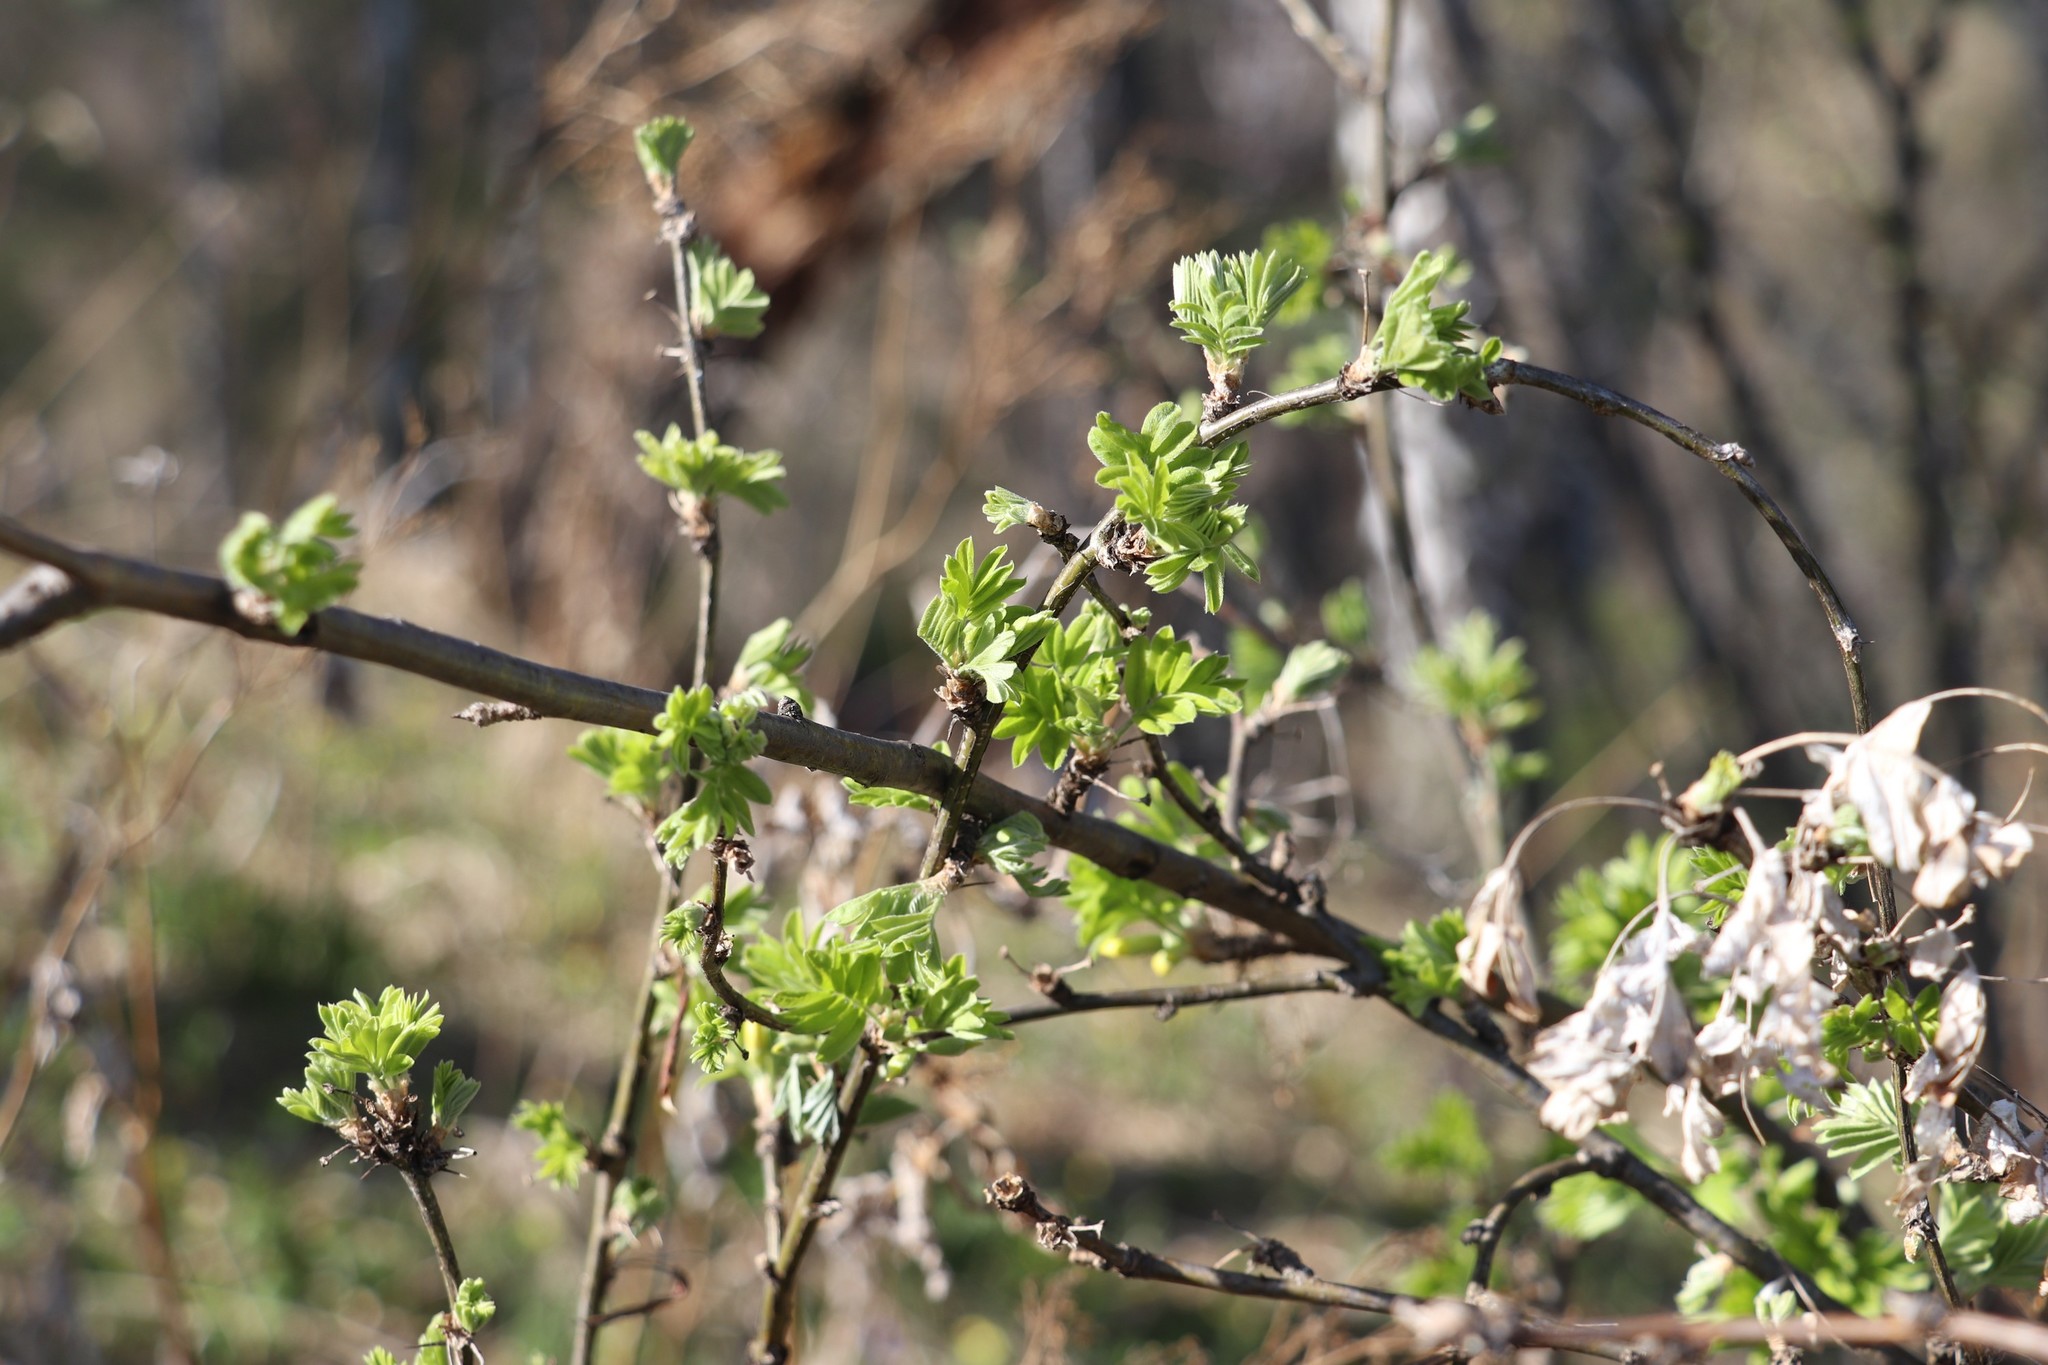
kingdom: Plantae
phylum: Tracheophyta
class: Magnoliopsida
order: Fabales
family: Fabaceae
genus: Caragana
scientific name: Caragana arborescens
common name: Siberian peashrub
